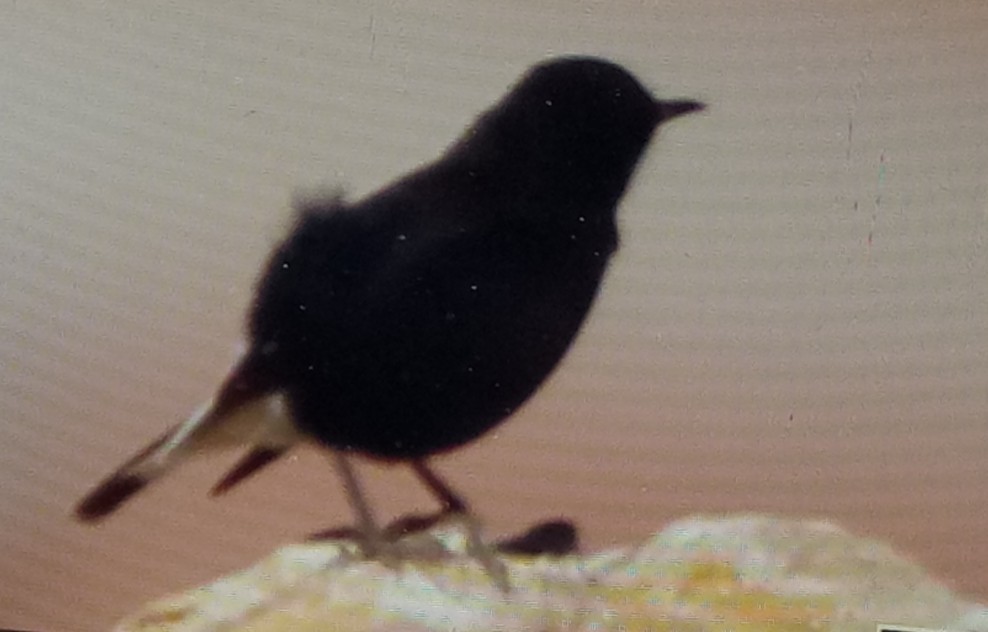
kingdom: Animalia
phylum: Chordata
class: Aves
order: Passeriformes
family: Muscicapidae
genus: Oenanthe
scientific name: Oenanthe leucura
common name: Black wheatear
